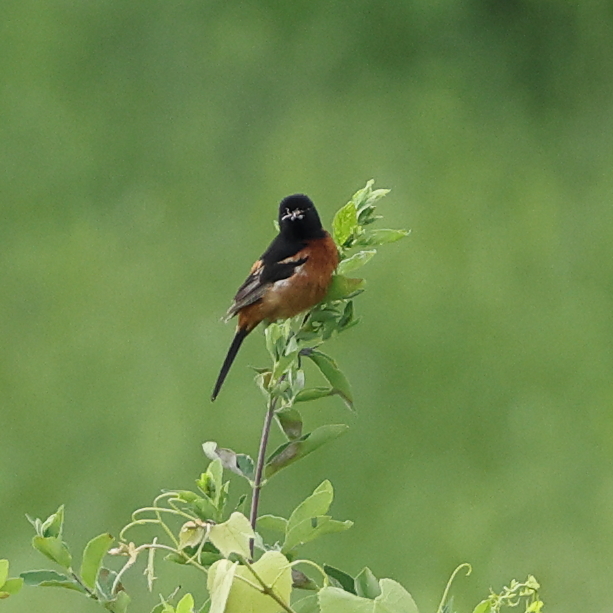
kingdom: Animalia
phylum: Chordata
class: Aves
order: Passeriformes
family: Icteridae
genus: Icterus
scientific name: Icterus spurius
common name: Orchard oriole
